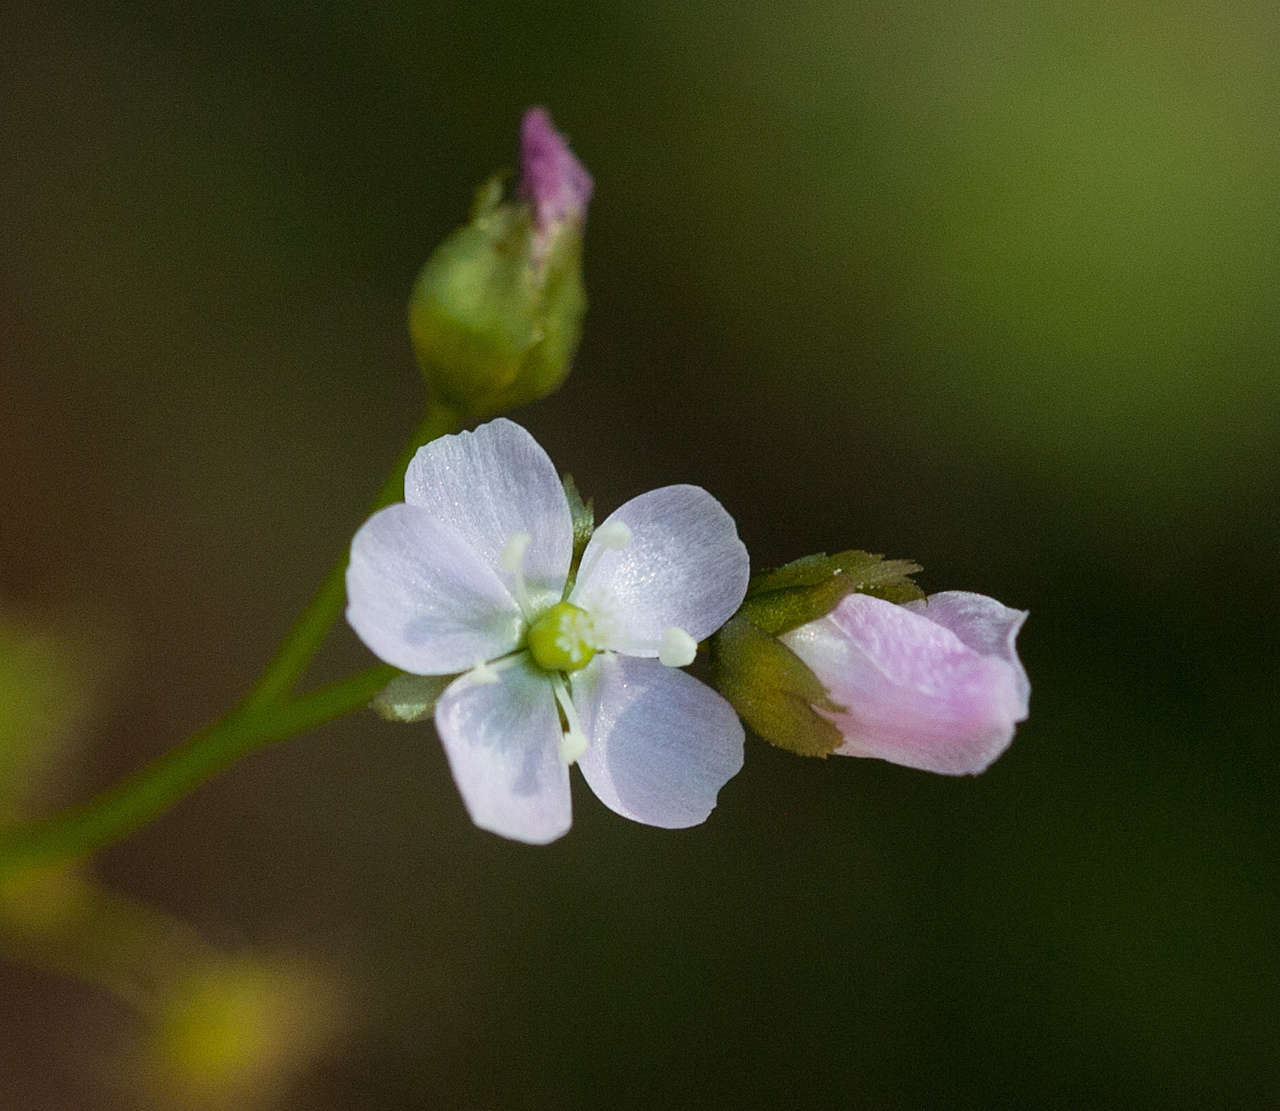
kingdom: Plantae
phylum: Tracheophyta
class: Magnoliopsida
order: Caryophyllales
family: Droseraceae
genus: Drosera
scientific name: Drosera peltata
